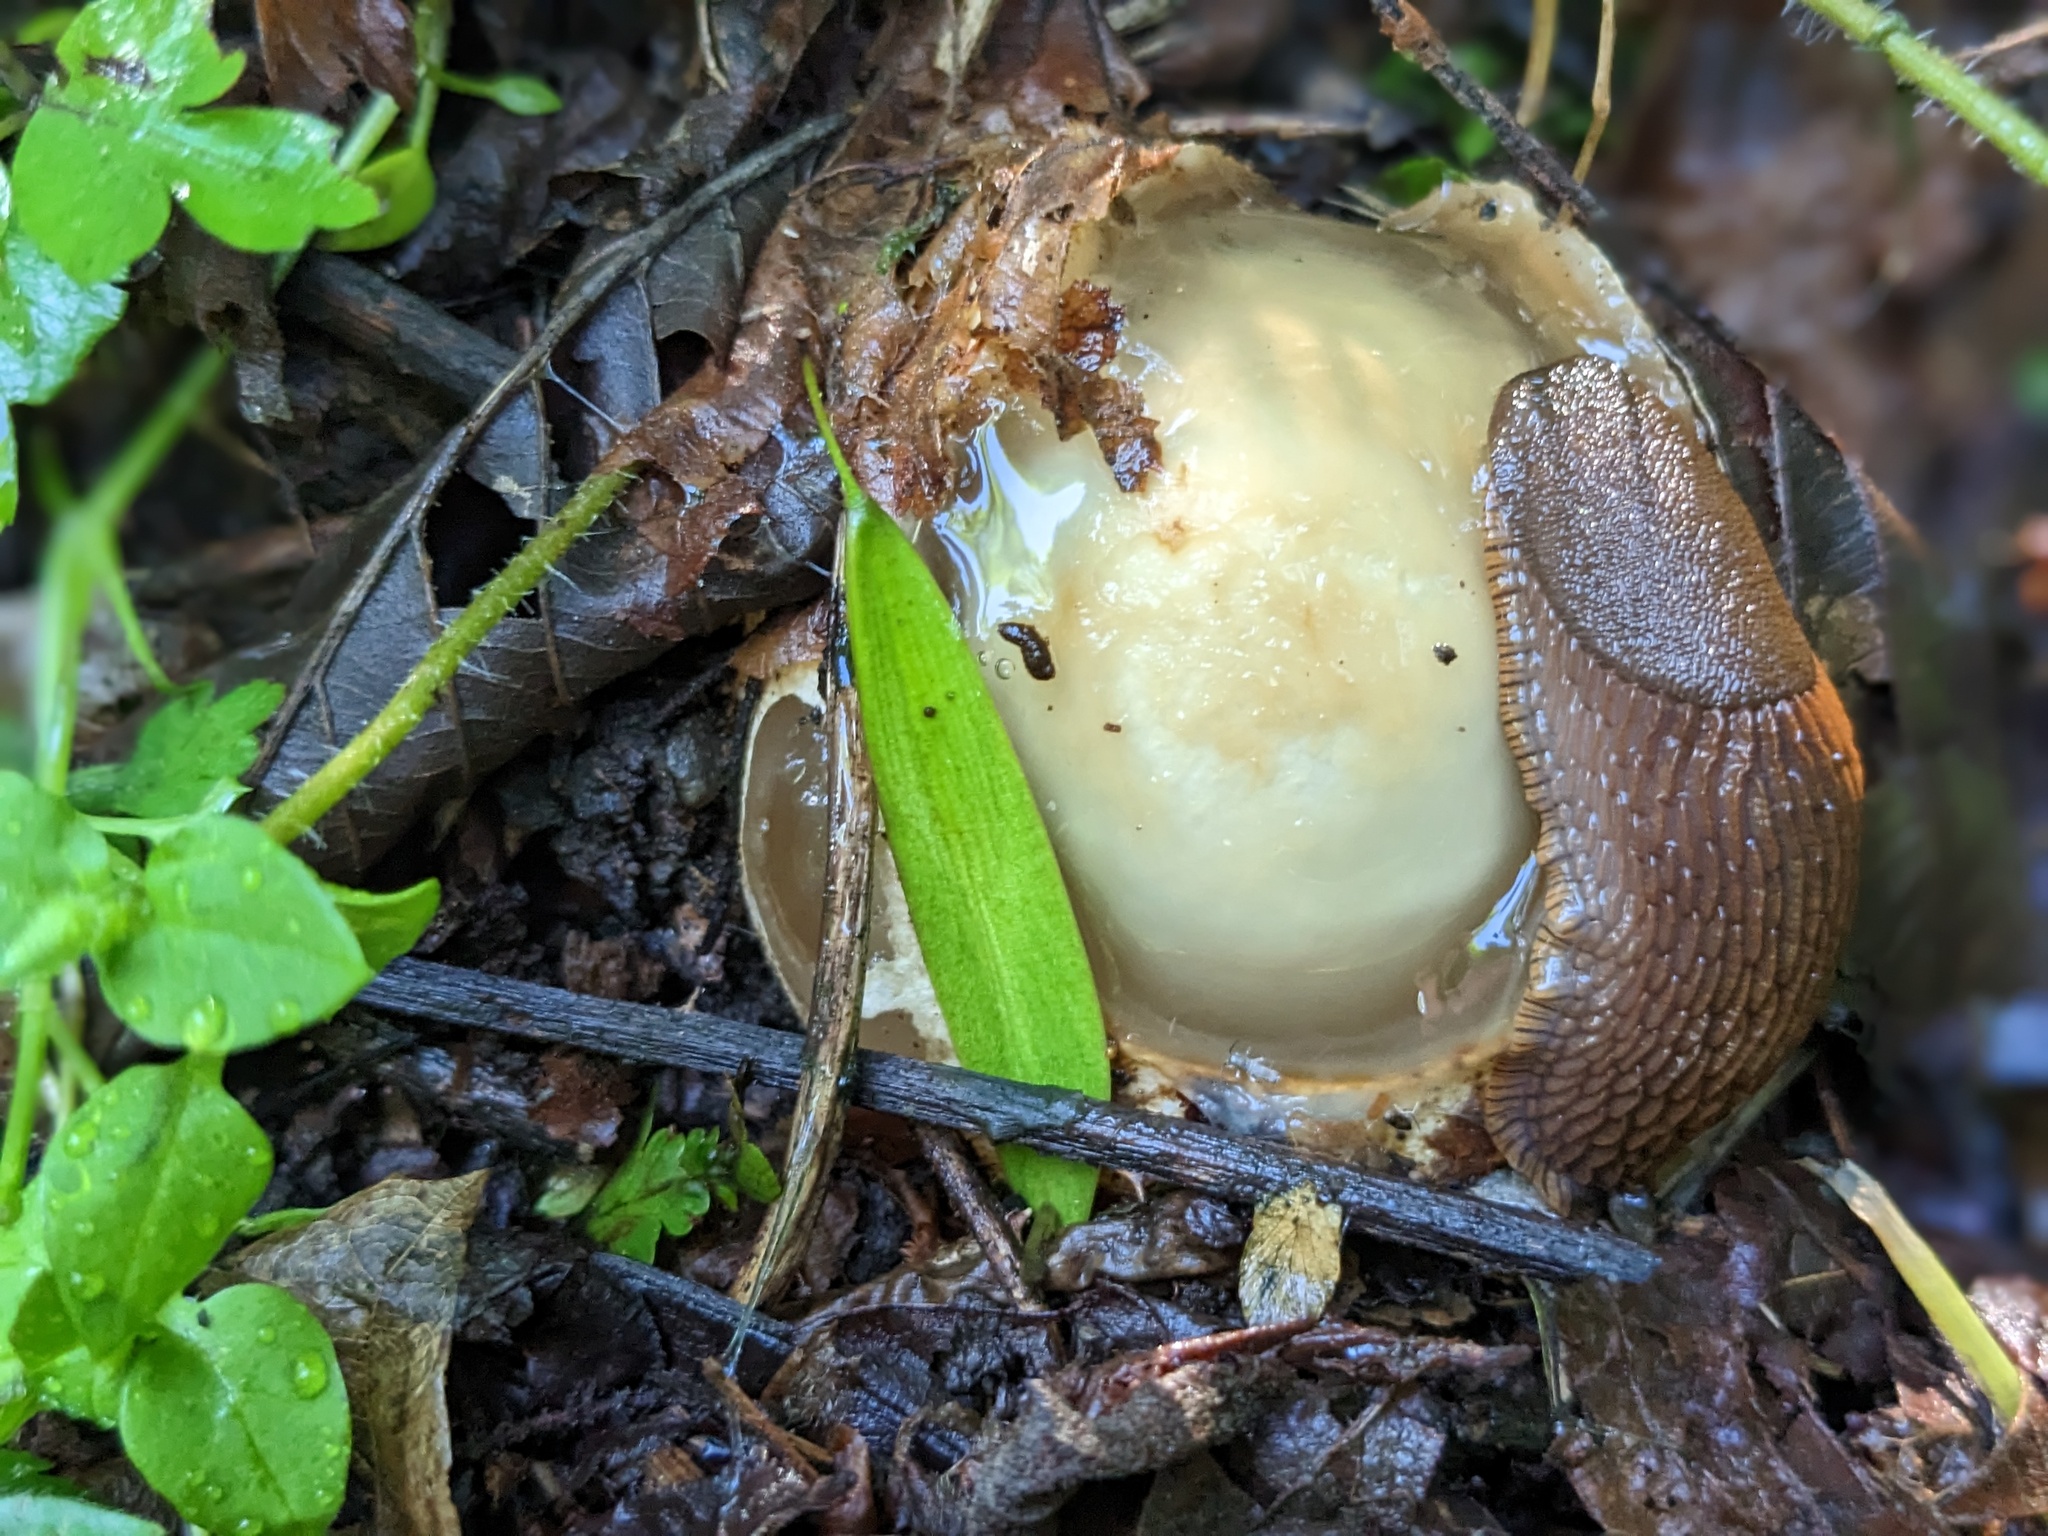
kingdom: Fungi
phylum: Basidiomycota
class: Agaricomycetes
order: Phallales
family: Phallaceae
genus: Phallus
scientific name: Phallus impudicus
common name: Common stinkhorn
